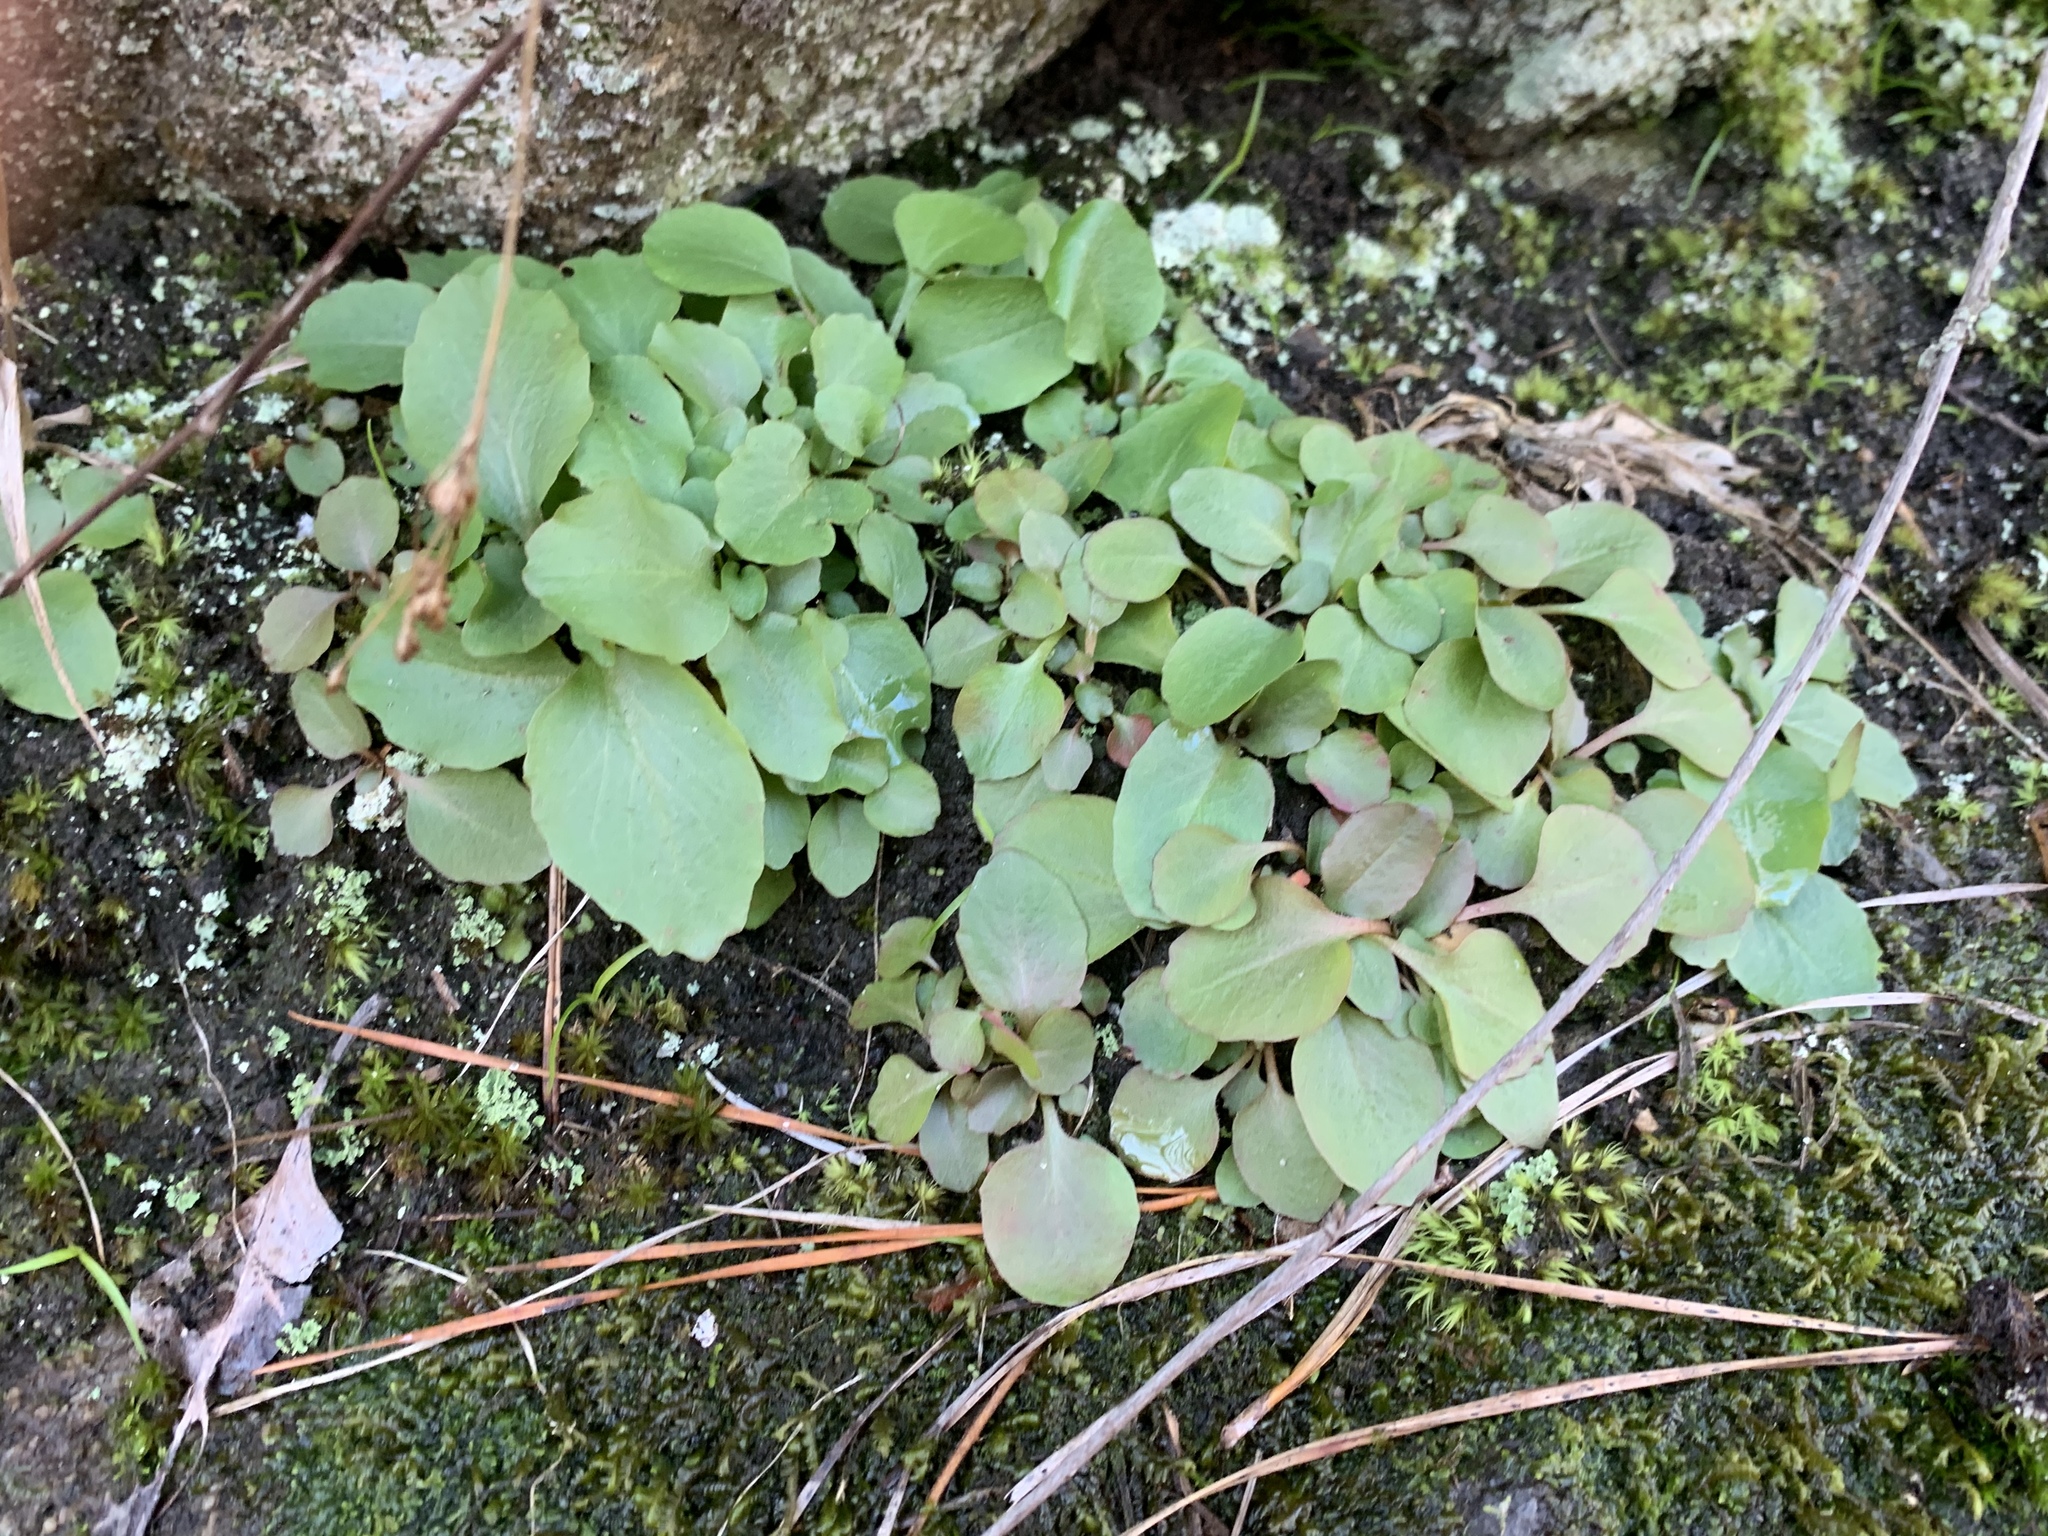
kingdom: Plantae
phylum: Tracheophyta
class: Magnoliopsida
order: Saxifragales
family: Saxifragaceae
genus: Micranthes
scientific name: Micranthes virginiensis
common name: Early saxifrage
